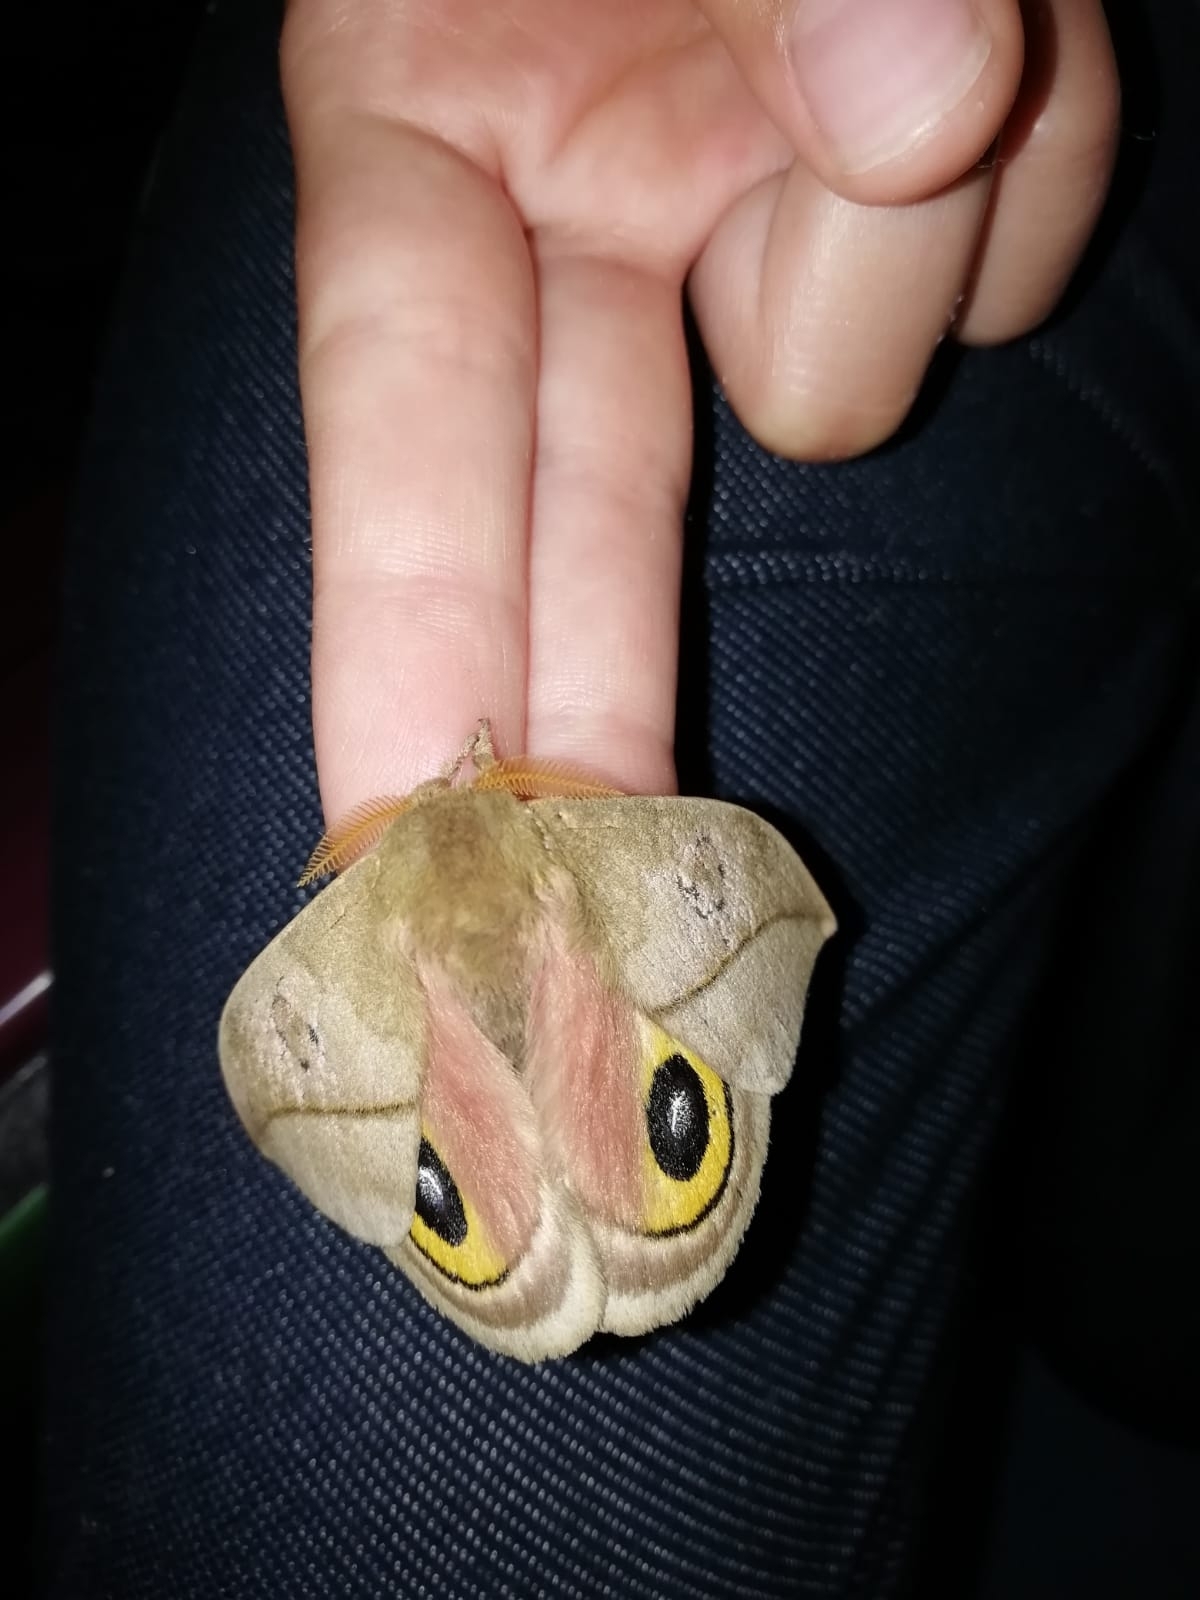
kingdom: Animalia
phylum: Arthropoda
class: Insecta
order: Lepidoptera
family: Saturniidae
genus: Automeris
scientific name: Automeris zugana
